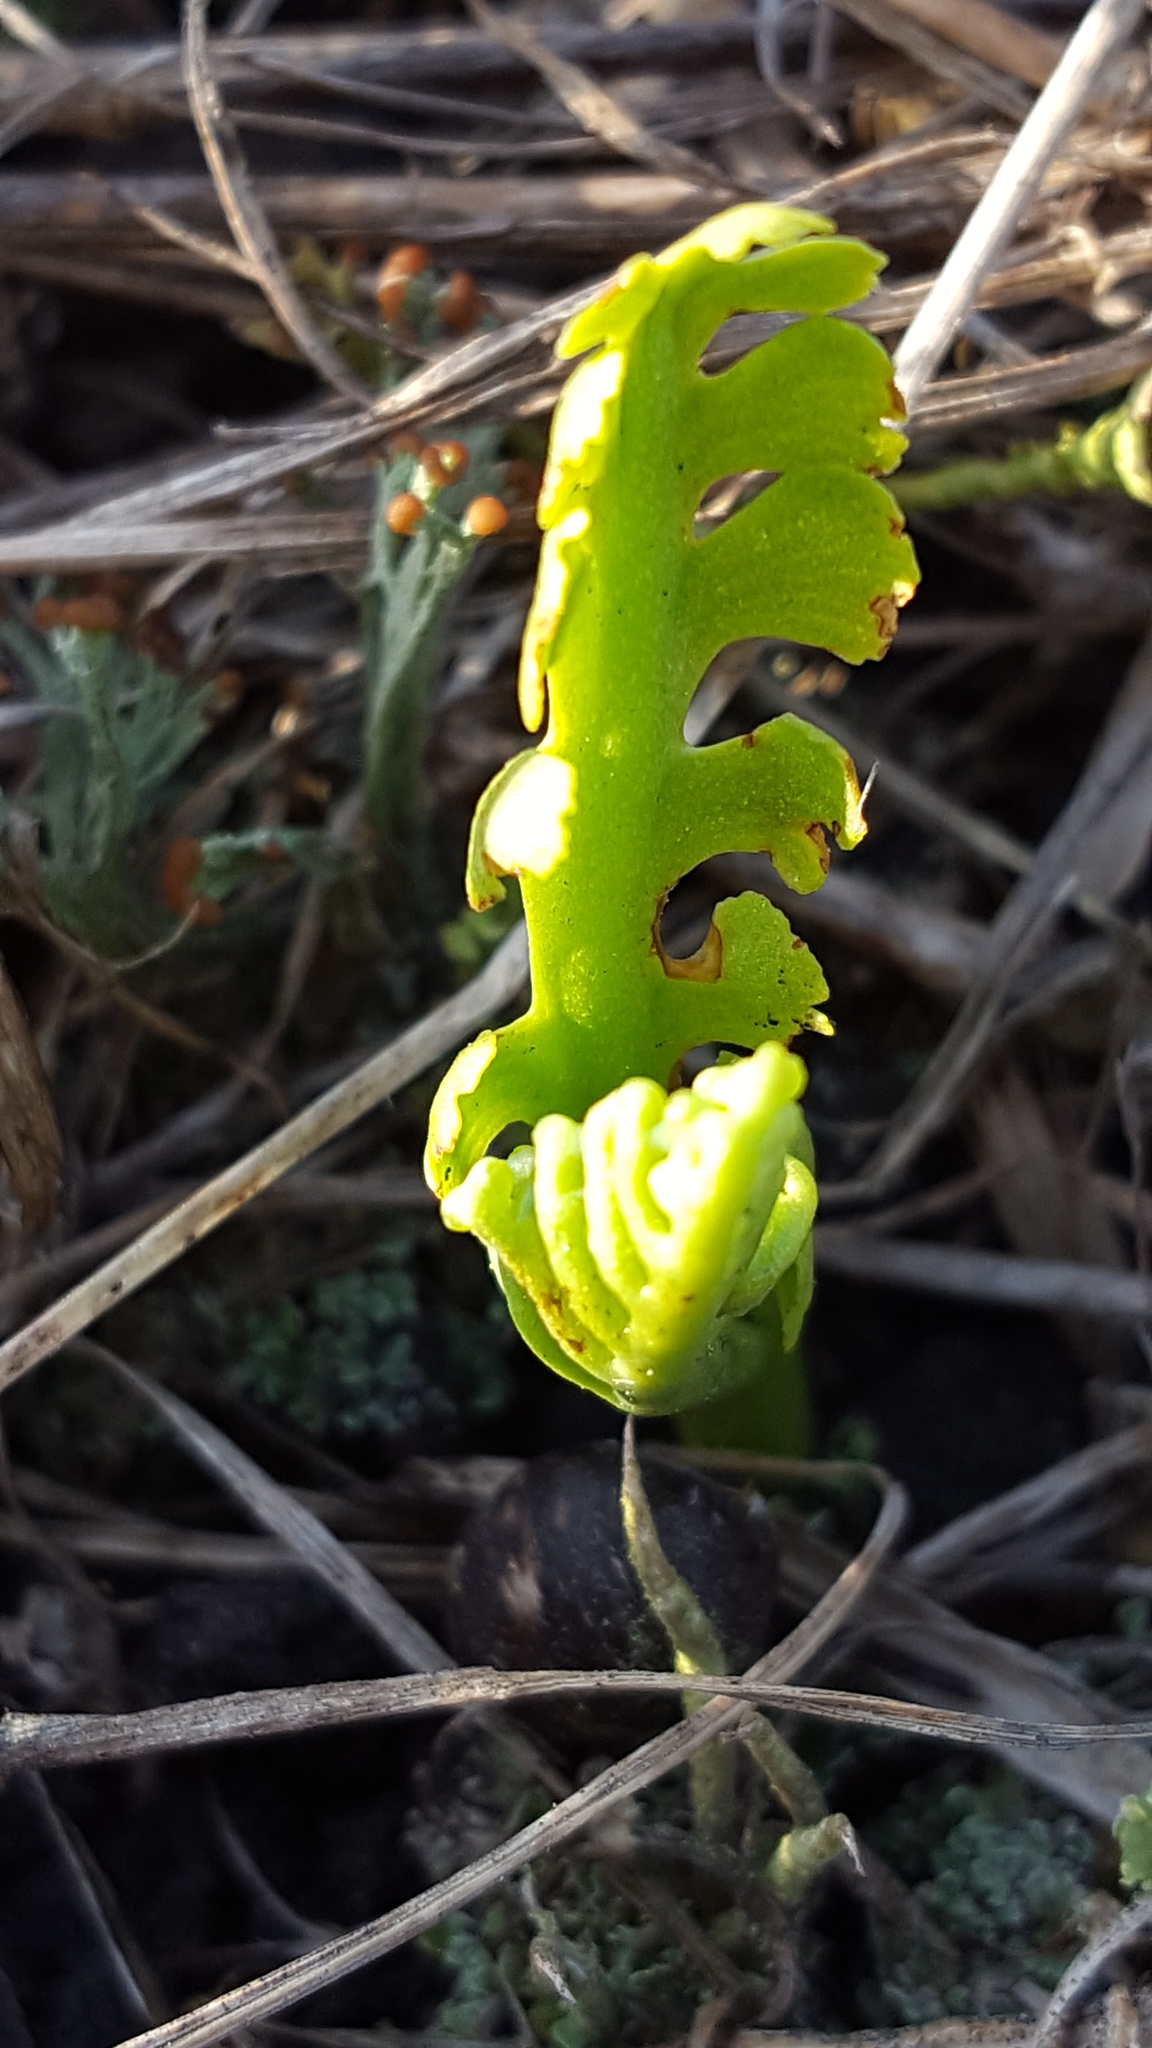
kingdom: Plantae
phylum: Tracheophyta
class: Polypodiopsida
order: Ophioglossales
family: Ophioglossaceae
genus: Botrychium
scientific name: Botrychium matricariifolium
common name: Branched moonwort
